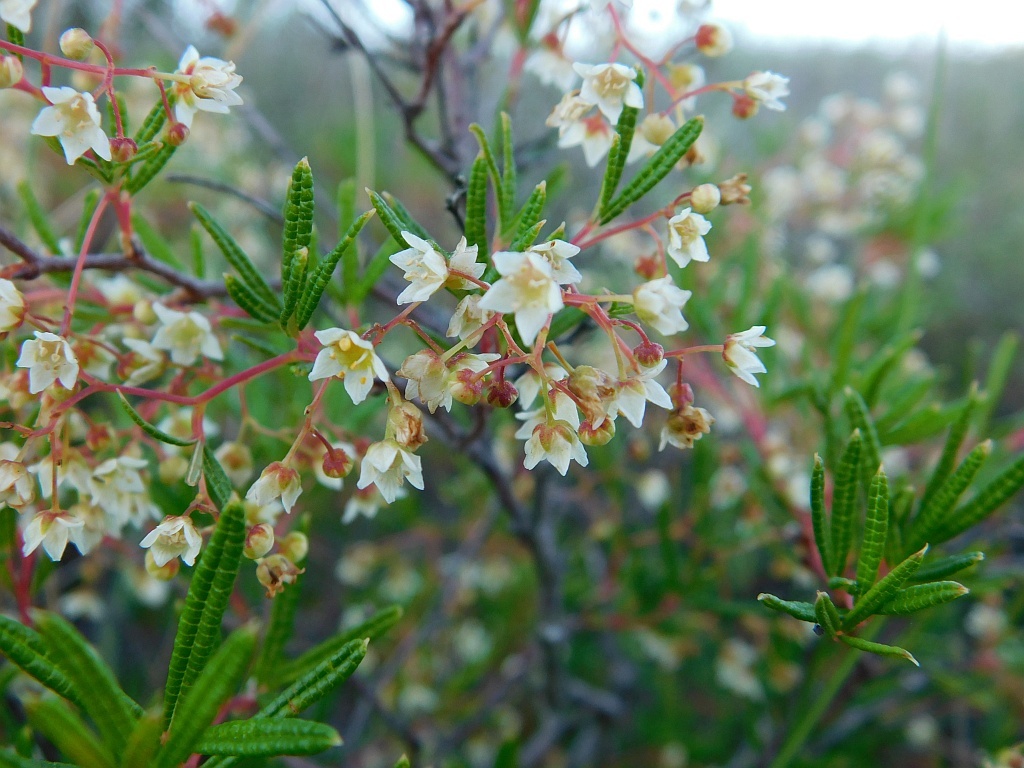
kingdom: Plantae
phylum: Tracheophyta
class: Magnoliopsida
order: Sapindales
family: Anacardiaceae
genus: Searsia
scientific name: Searsia rosmarinifolia
